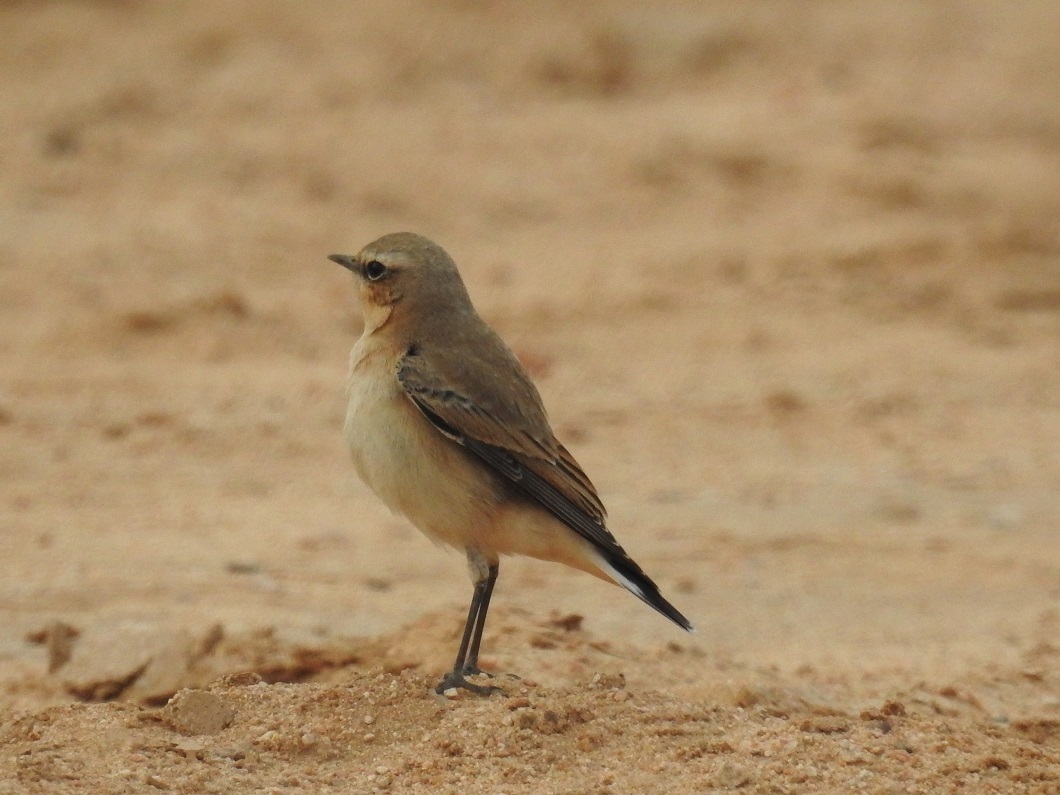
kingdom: Animalia
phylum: Chordata
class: Aves
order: Passeriformes
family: Muscicapidae
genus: Oenanthe
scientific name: Oenanthe oenanthe
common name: Northern wheatear
